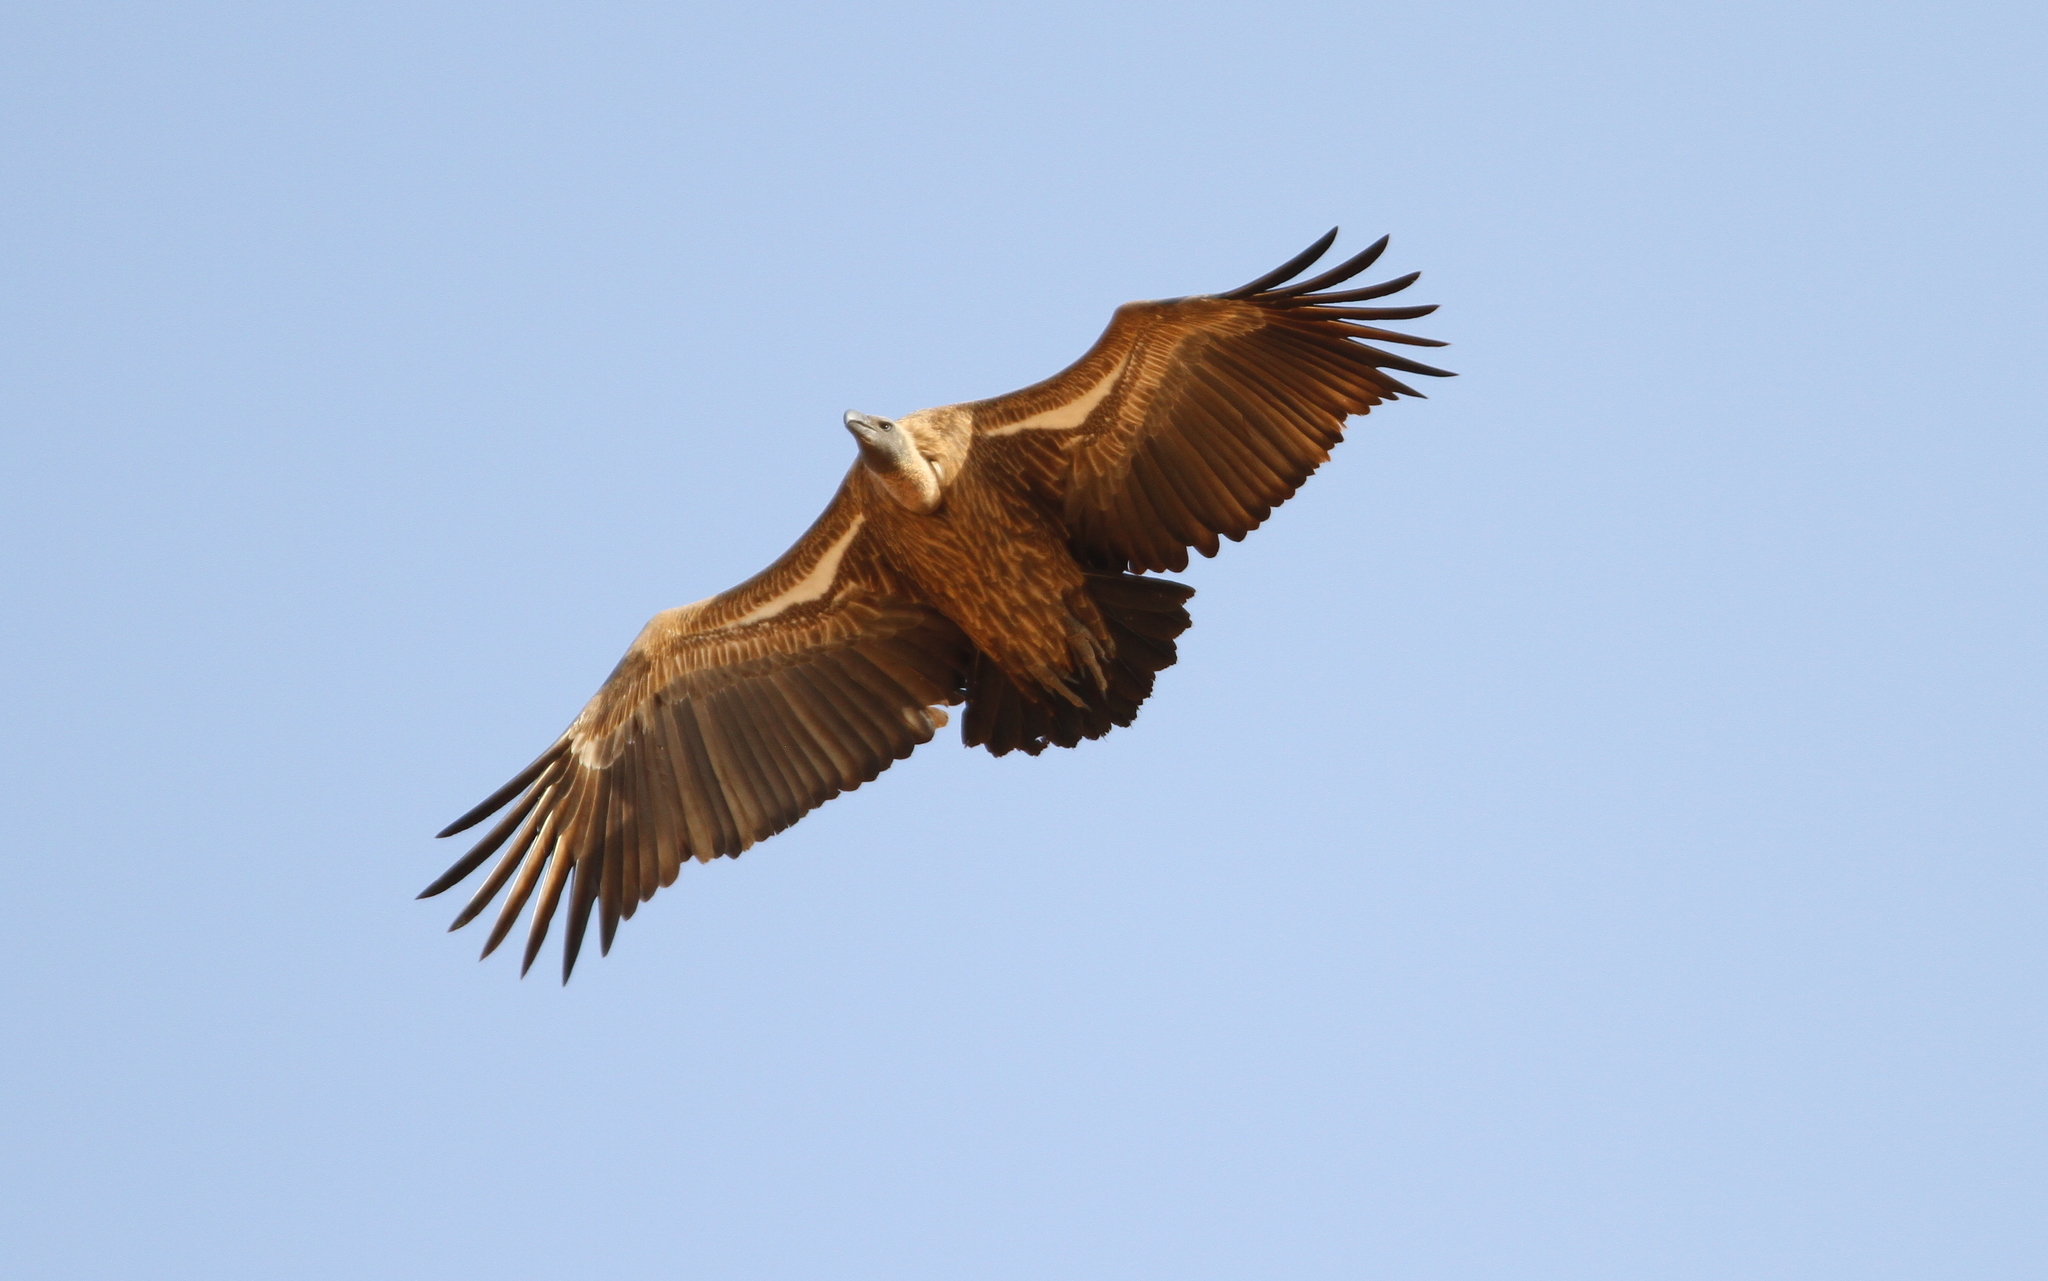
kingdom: Animalia
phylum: Chordata
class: Aves
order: Accipitriformes
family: Accipitridae
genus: Gyps
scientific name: Gyps africanus
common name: White-backed vulture
